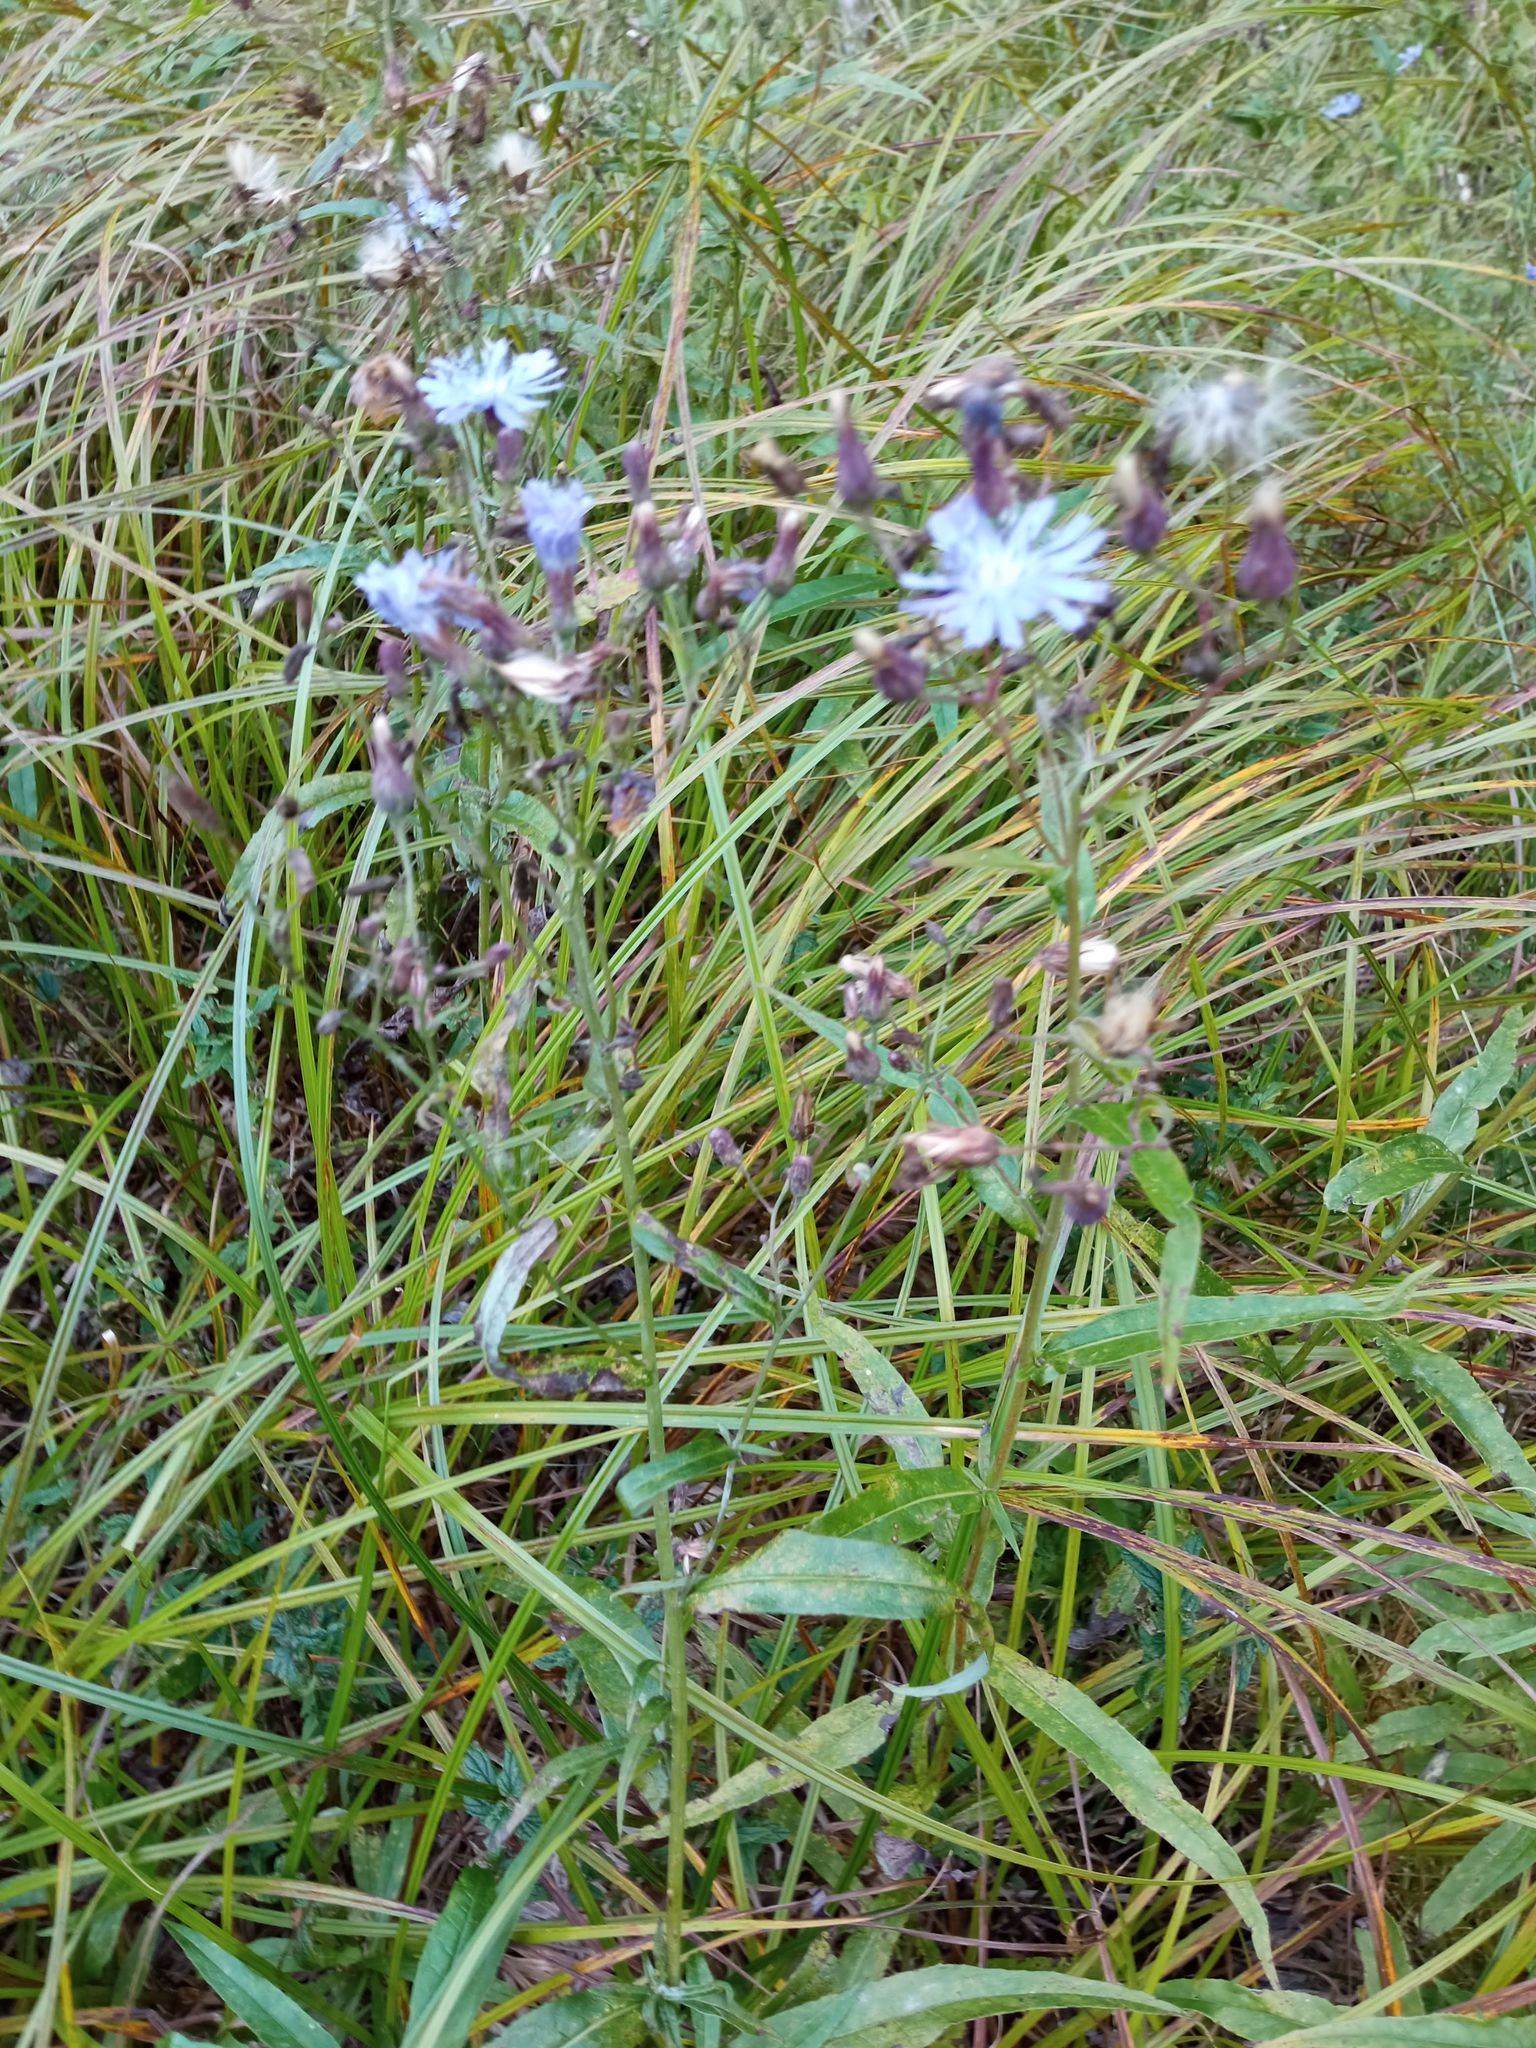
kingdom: Plantae
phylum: Tracheophyta
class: Magnoliopsida
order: Asterales
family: Asteraceae
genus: Lactuca
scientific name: Lactuca sibirica
